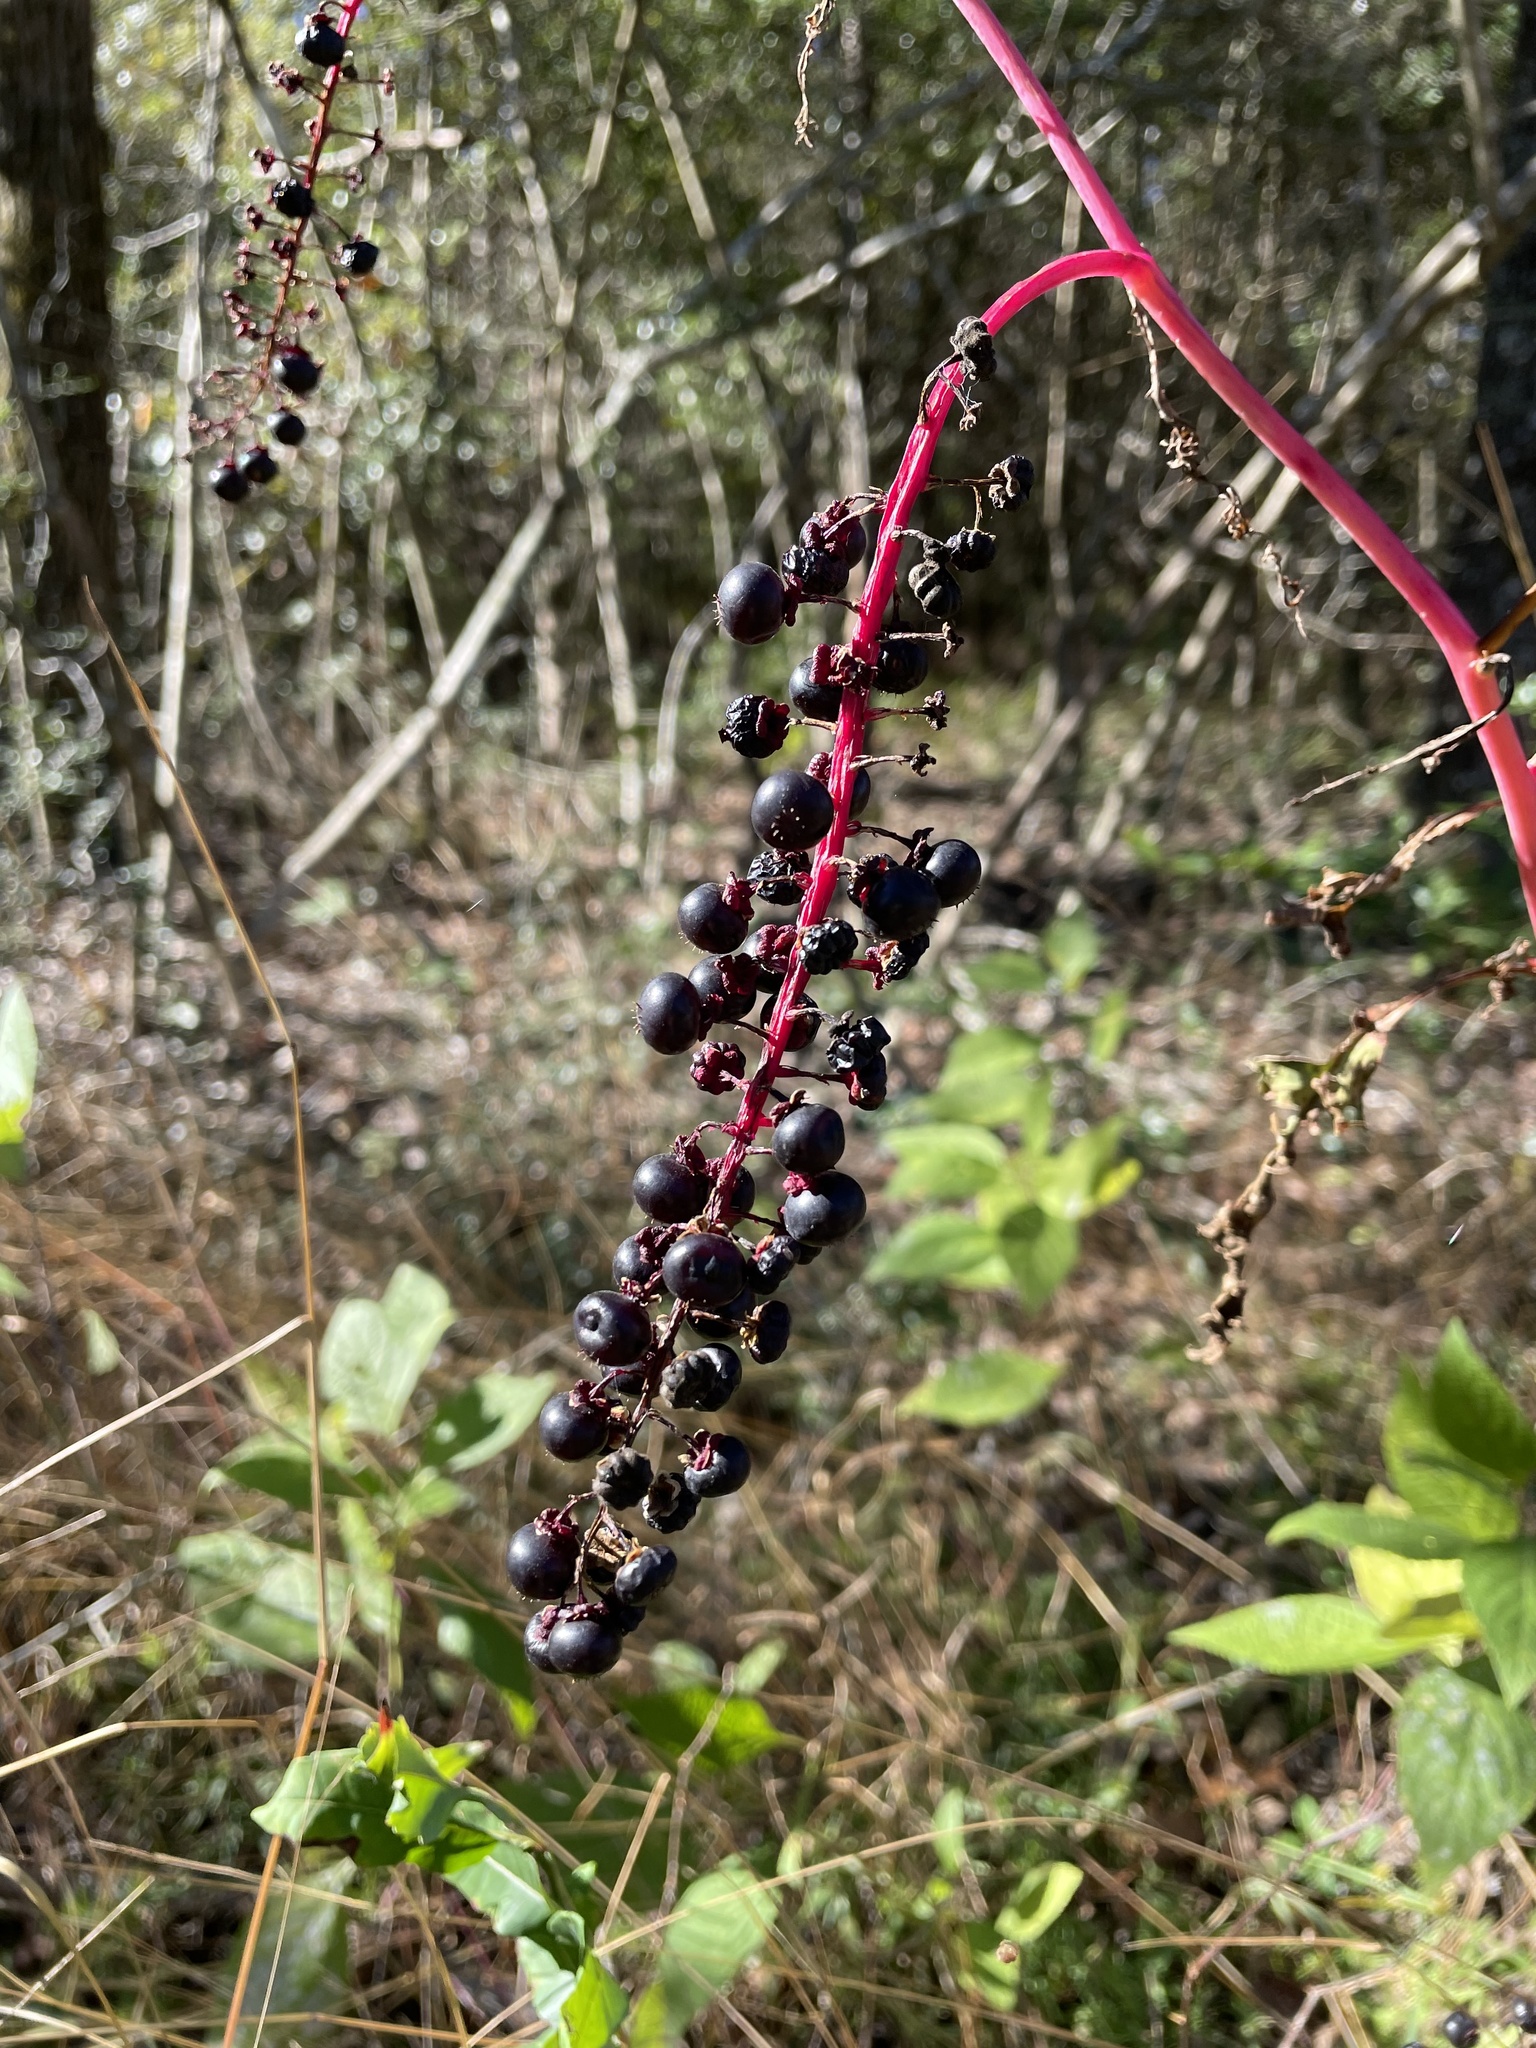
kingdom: Plantae
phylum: Tracheophyta
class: Magnoliopsida
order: Caryophyllales
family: Phytolaccaceae
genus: Phytolacca
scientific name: Phytolacca americana
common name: American pokeweed
